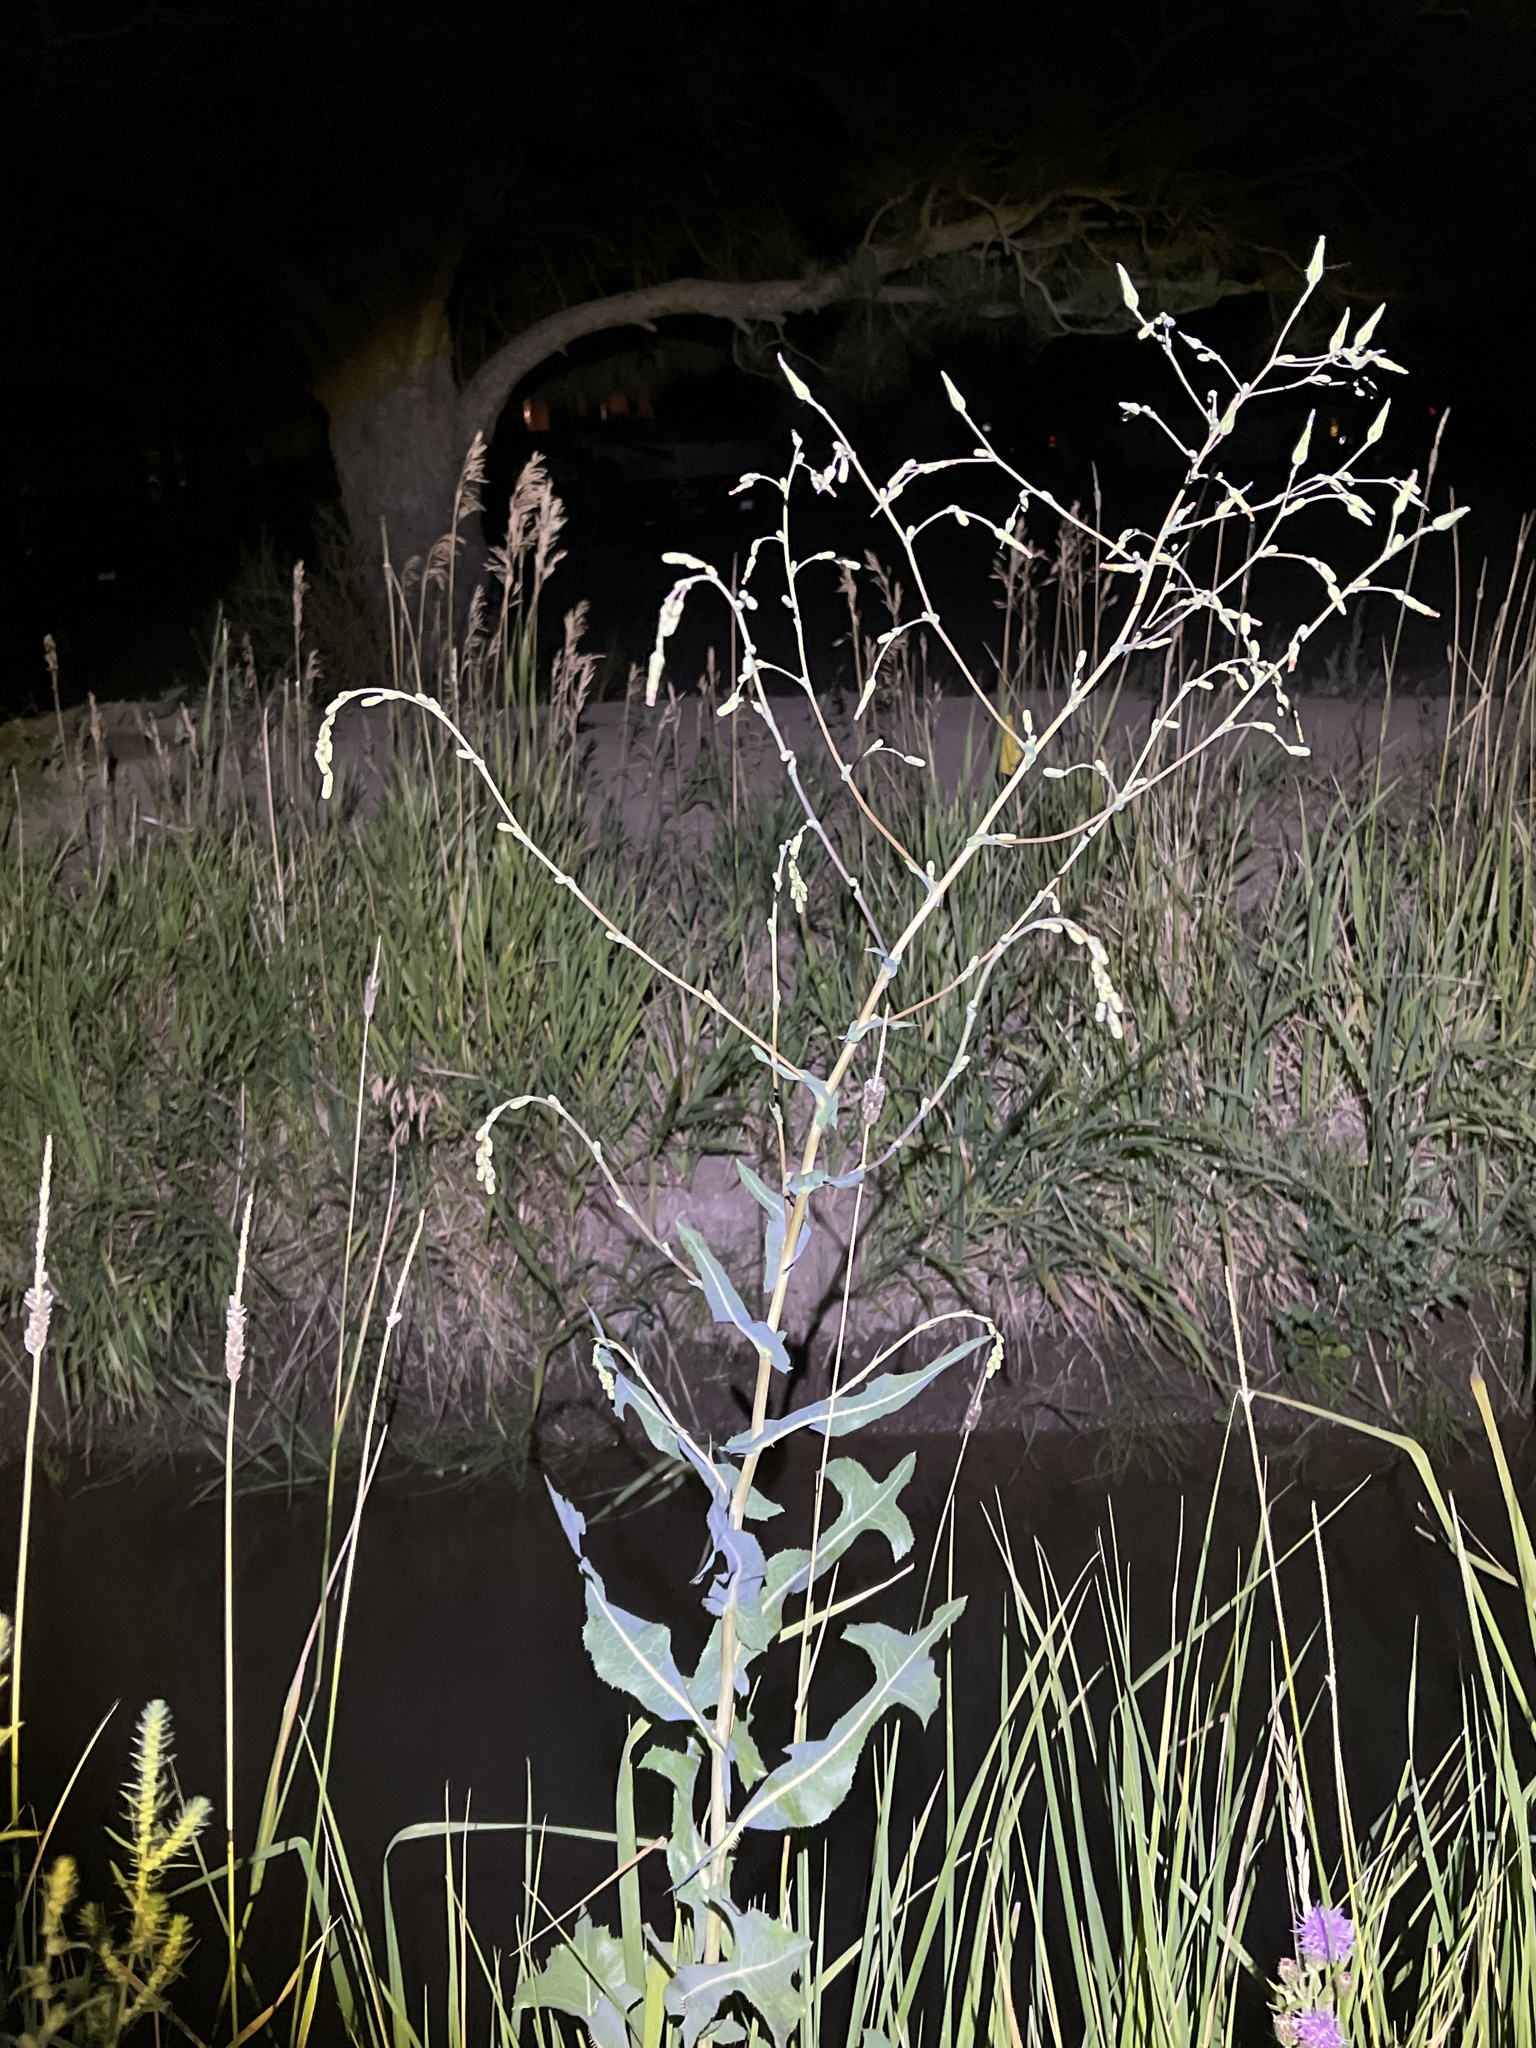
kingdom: Plantae
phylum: Tracheophyta
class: Magnoliopsida
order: Asterales
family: Asteraceae
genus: Lactuca
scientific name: Lactuca serriola
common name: Prickly lettuce
